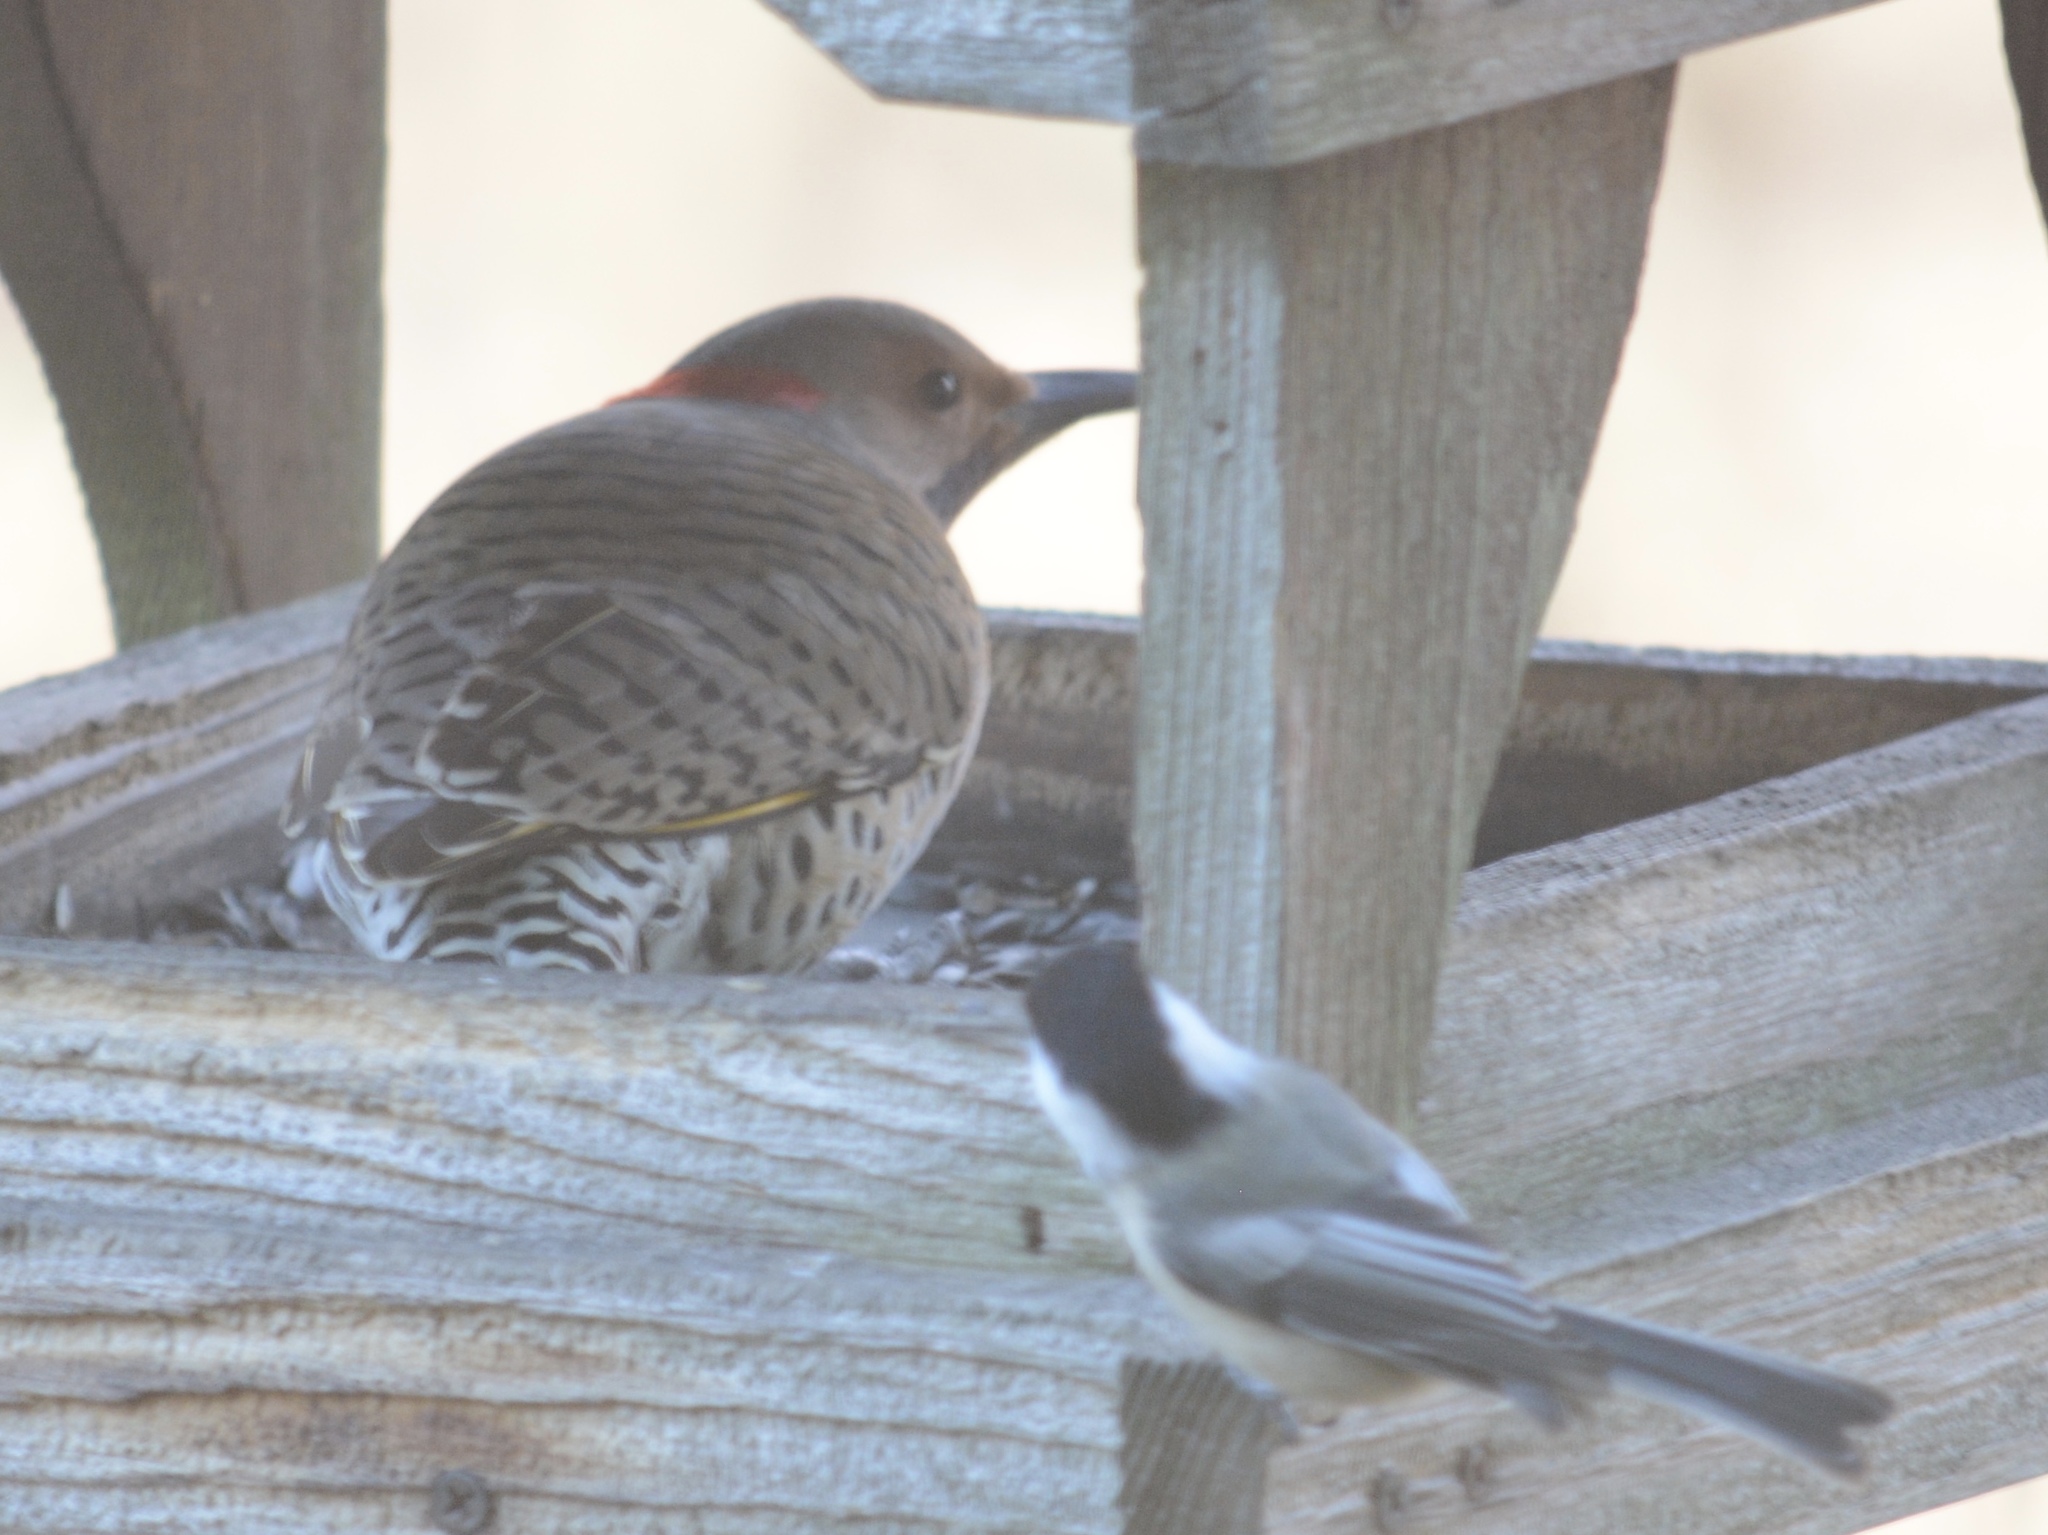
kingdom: Animalia
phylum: Chordata
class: Aves
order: Piciformes
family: Picidae
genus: Colaptes
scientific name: Colaptes auratus
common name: Northern flicker
